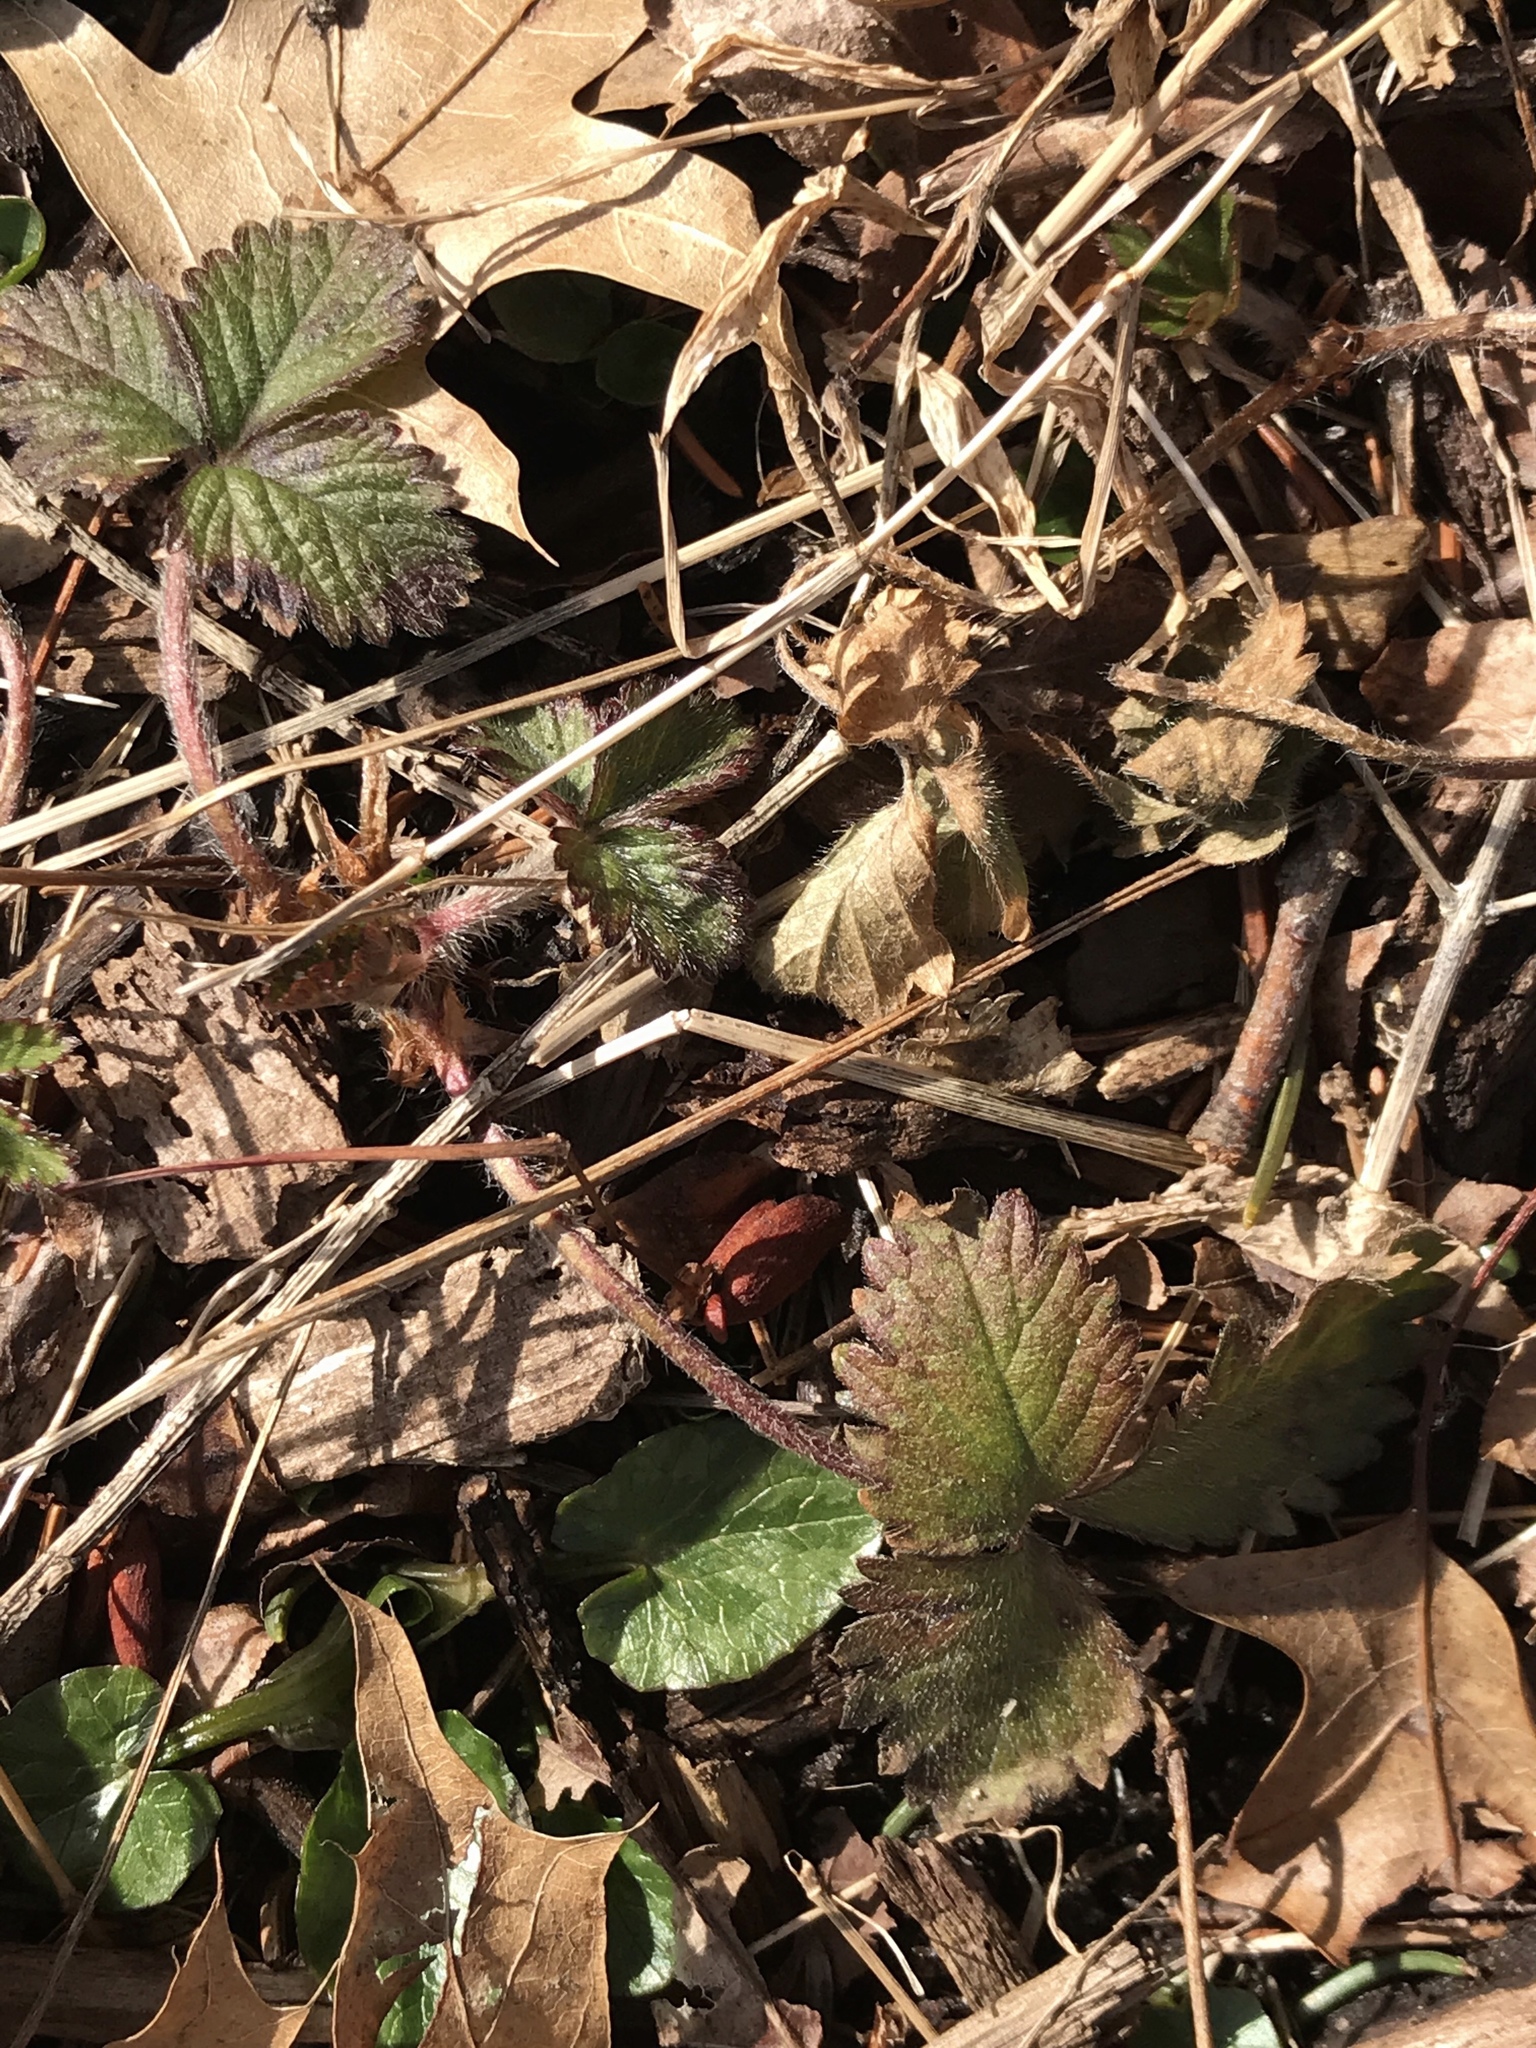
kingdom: Plantae
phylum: Tracheophyta
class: Magnoliopsida
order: Rosales
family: Rosaceae
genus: Potentilla
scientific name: Potentilla indica
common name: Yellow-flowered strawberry
